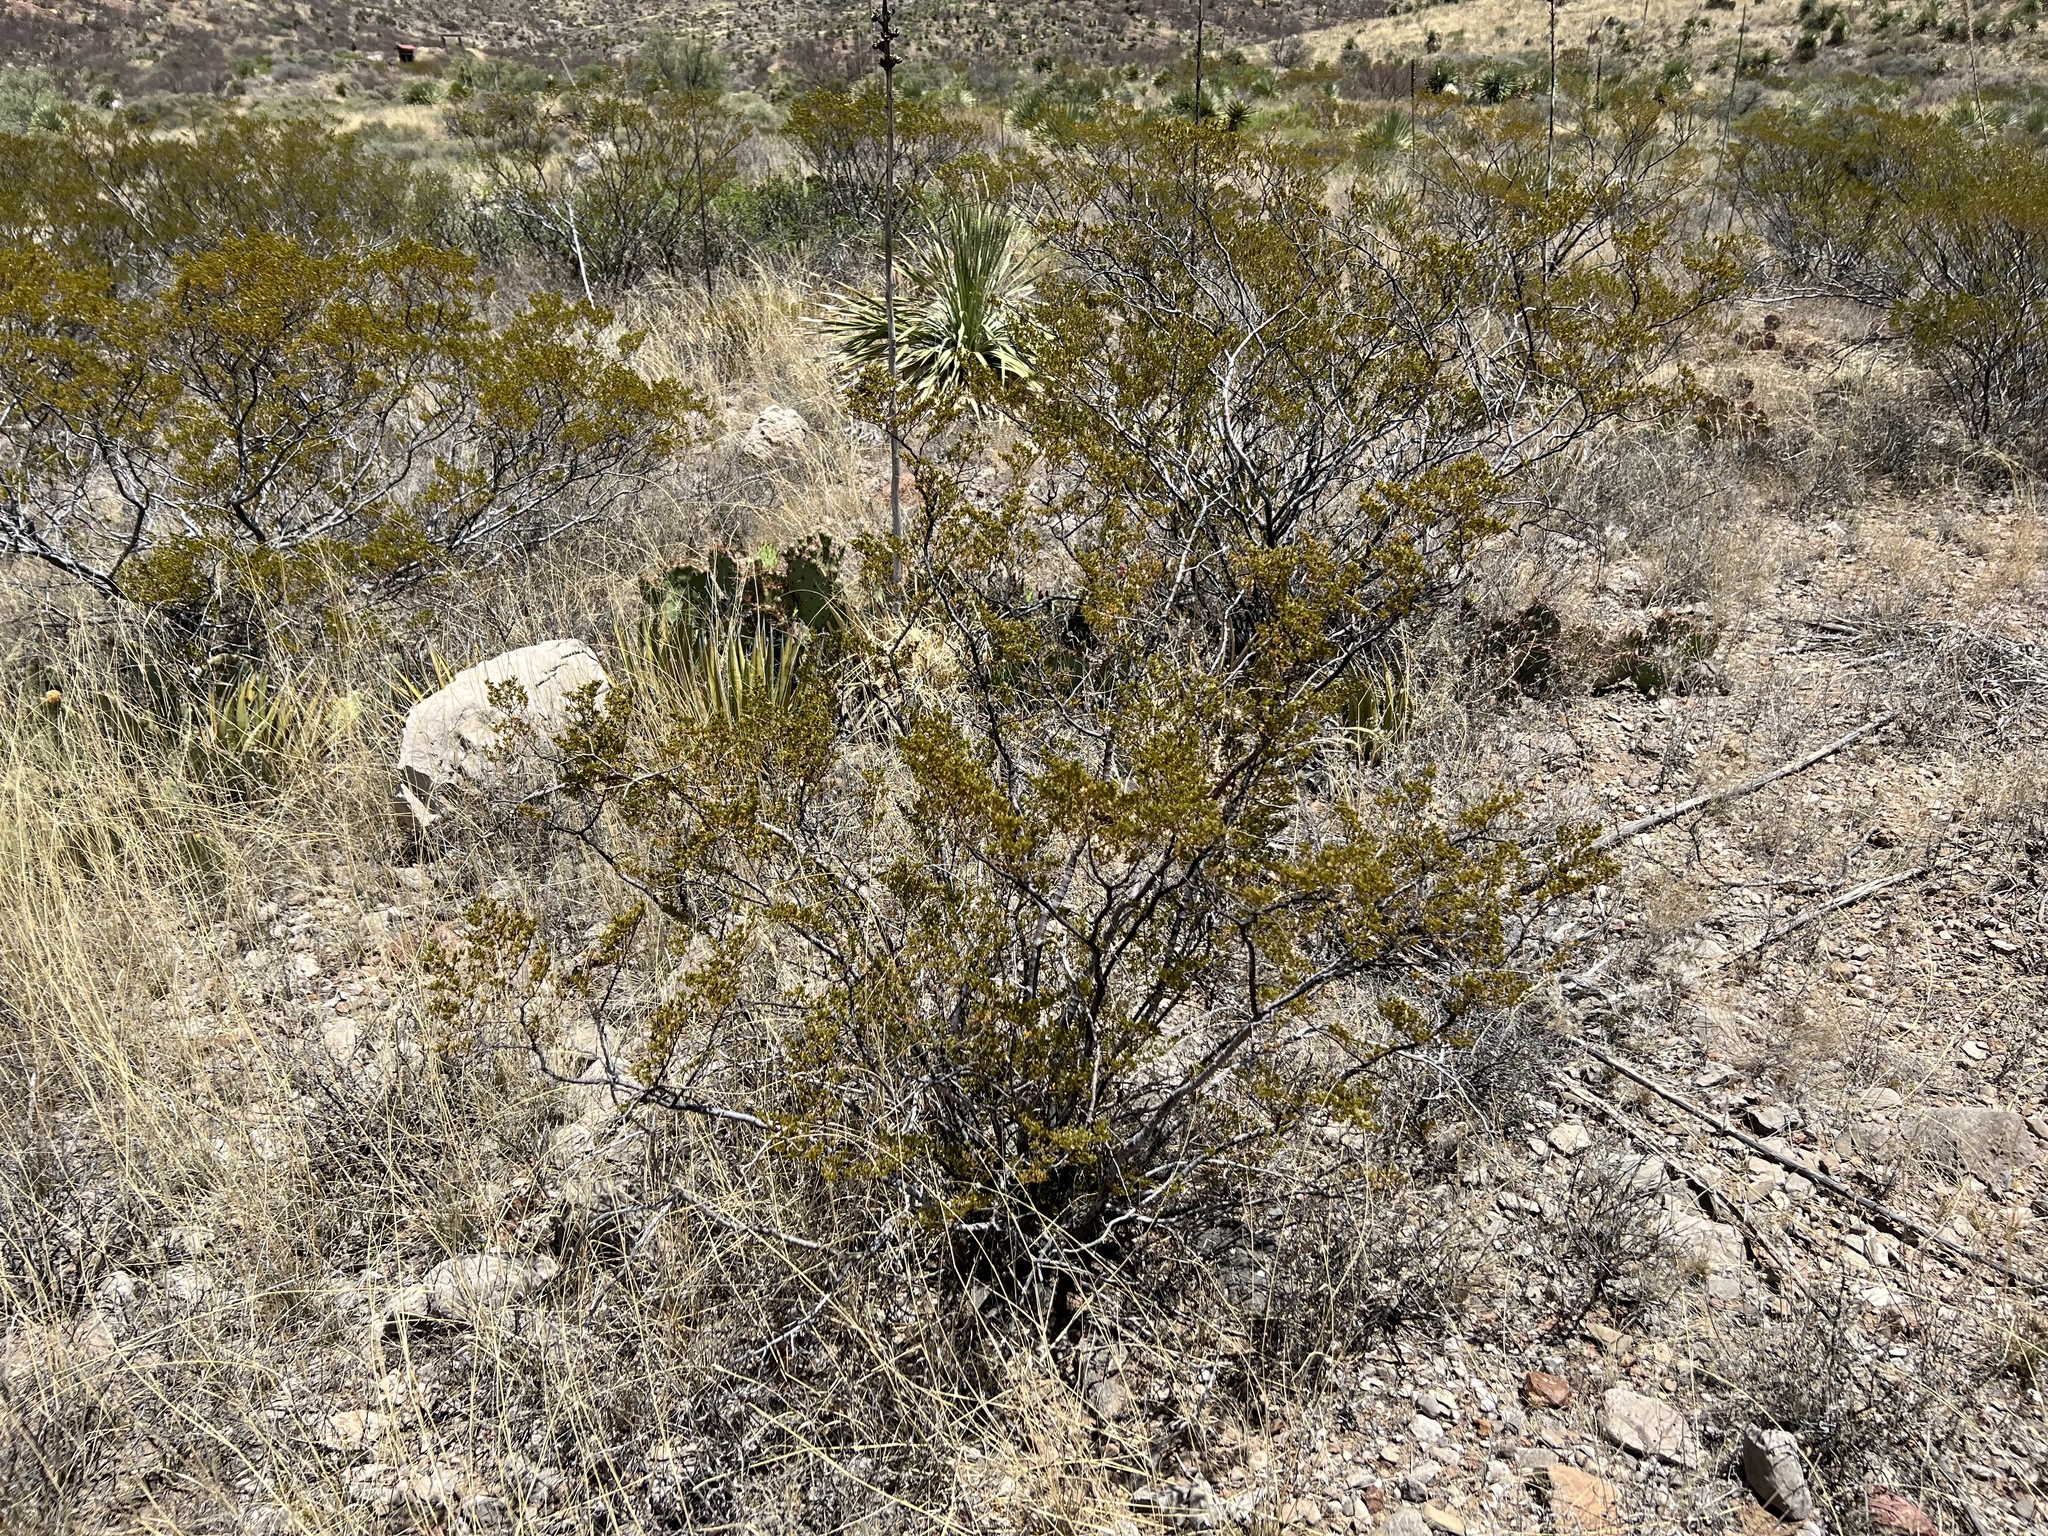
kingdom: Plantae
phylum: Tracheophyta
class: Magnoliopsida
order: Zygophyllales
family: Zygophyllaceae
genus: Larrea
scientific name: Larrea tridentata
